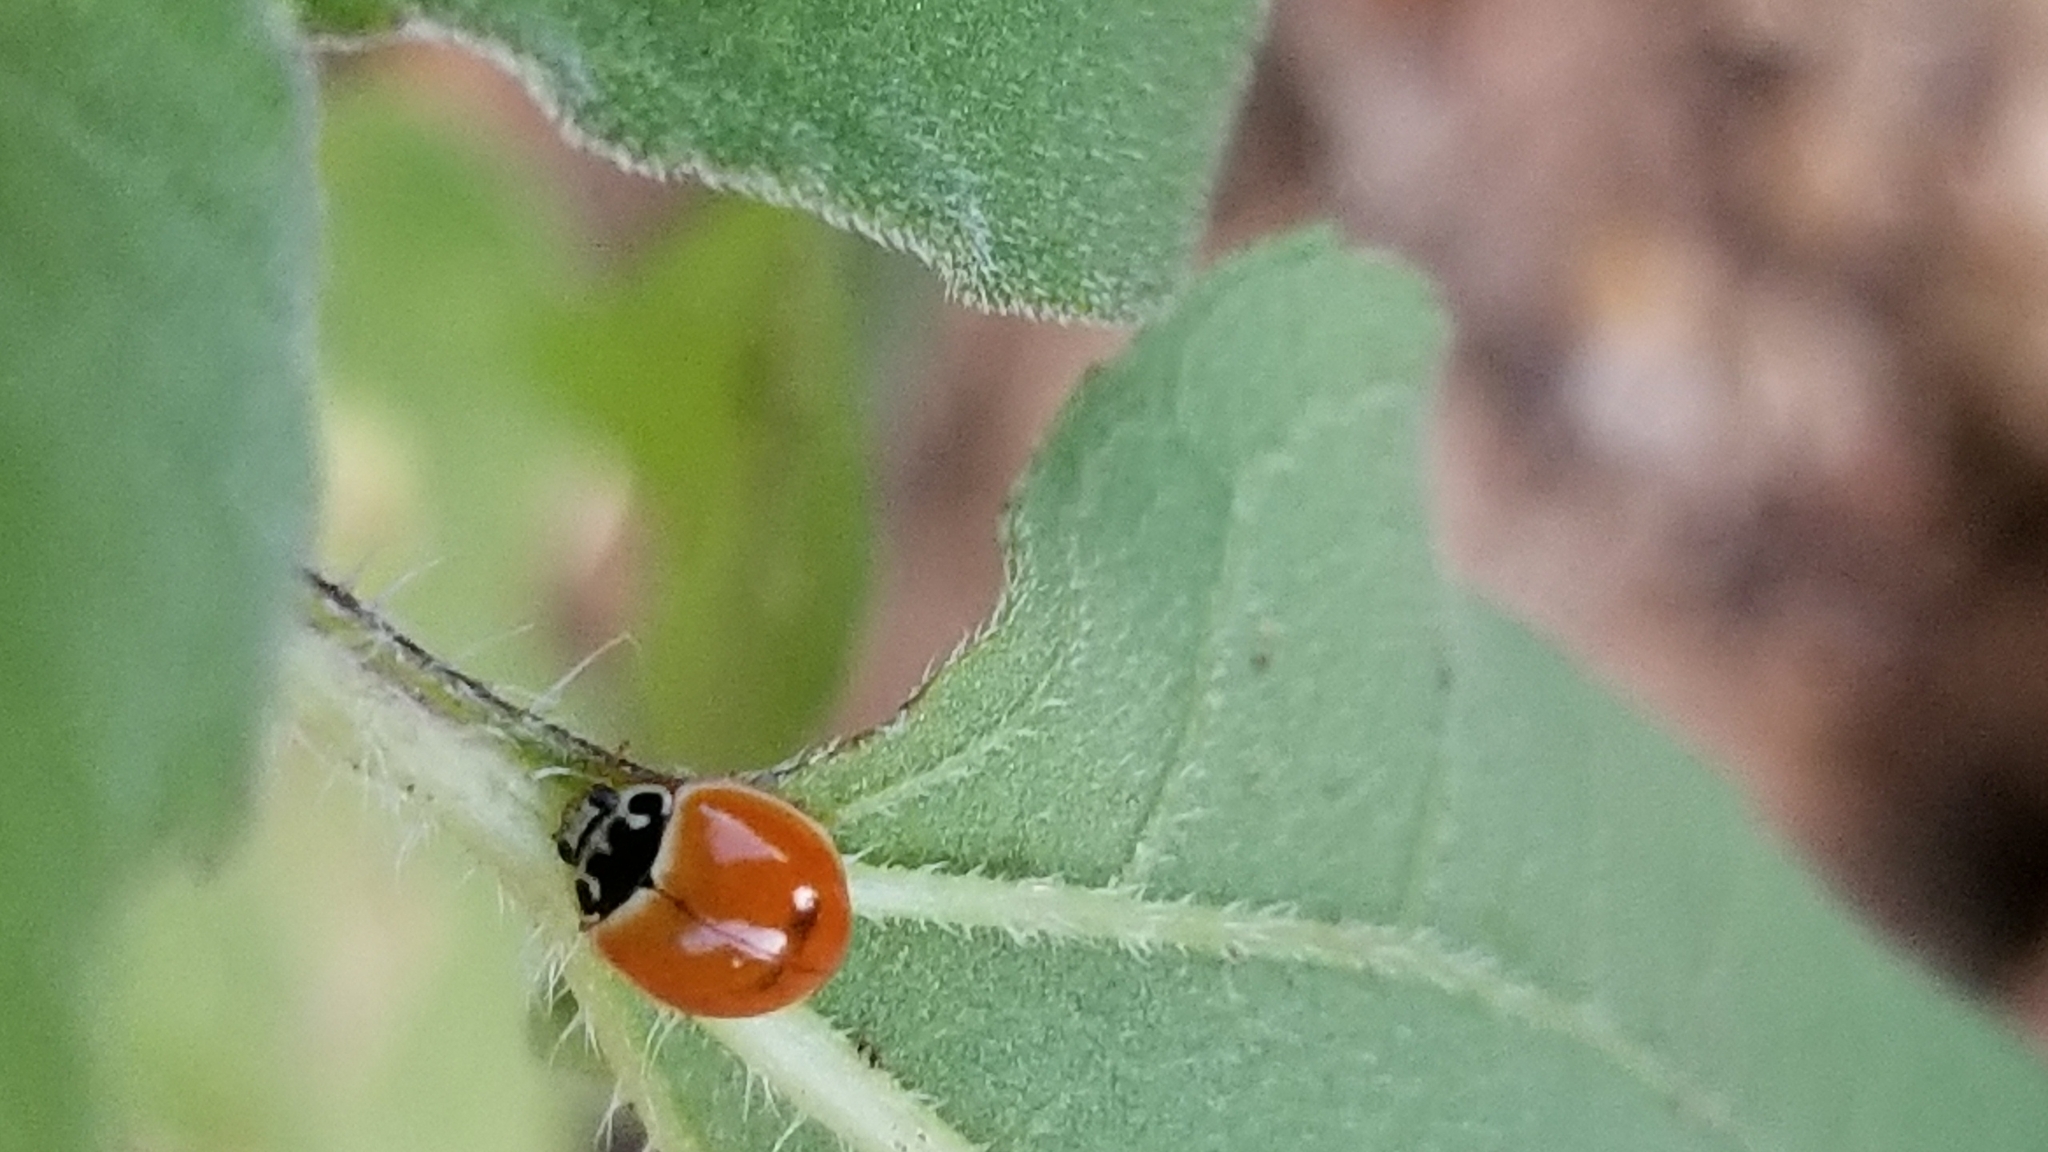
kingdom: Animalia
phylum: Arthropoda
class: Insecta
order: Coleoptera
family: Coccinellidae
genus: Cycloneda
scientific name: Cycloneda munda
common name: Polished lady beetle
